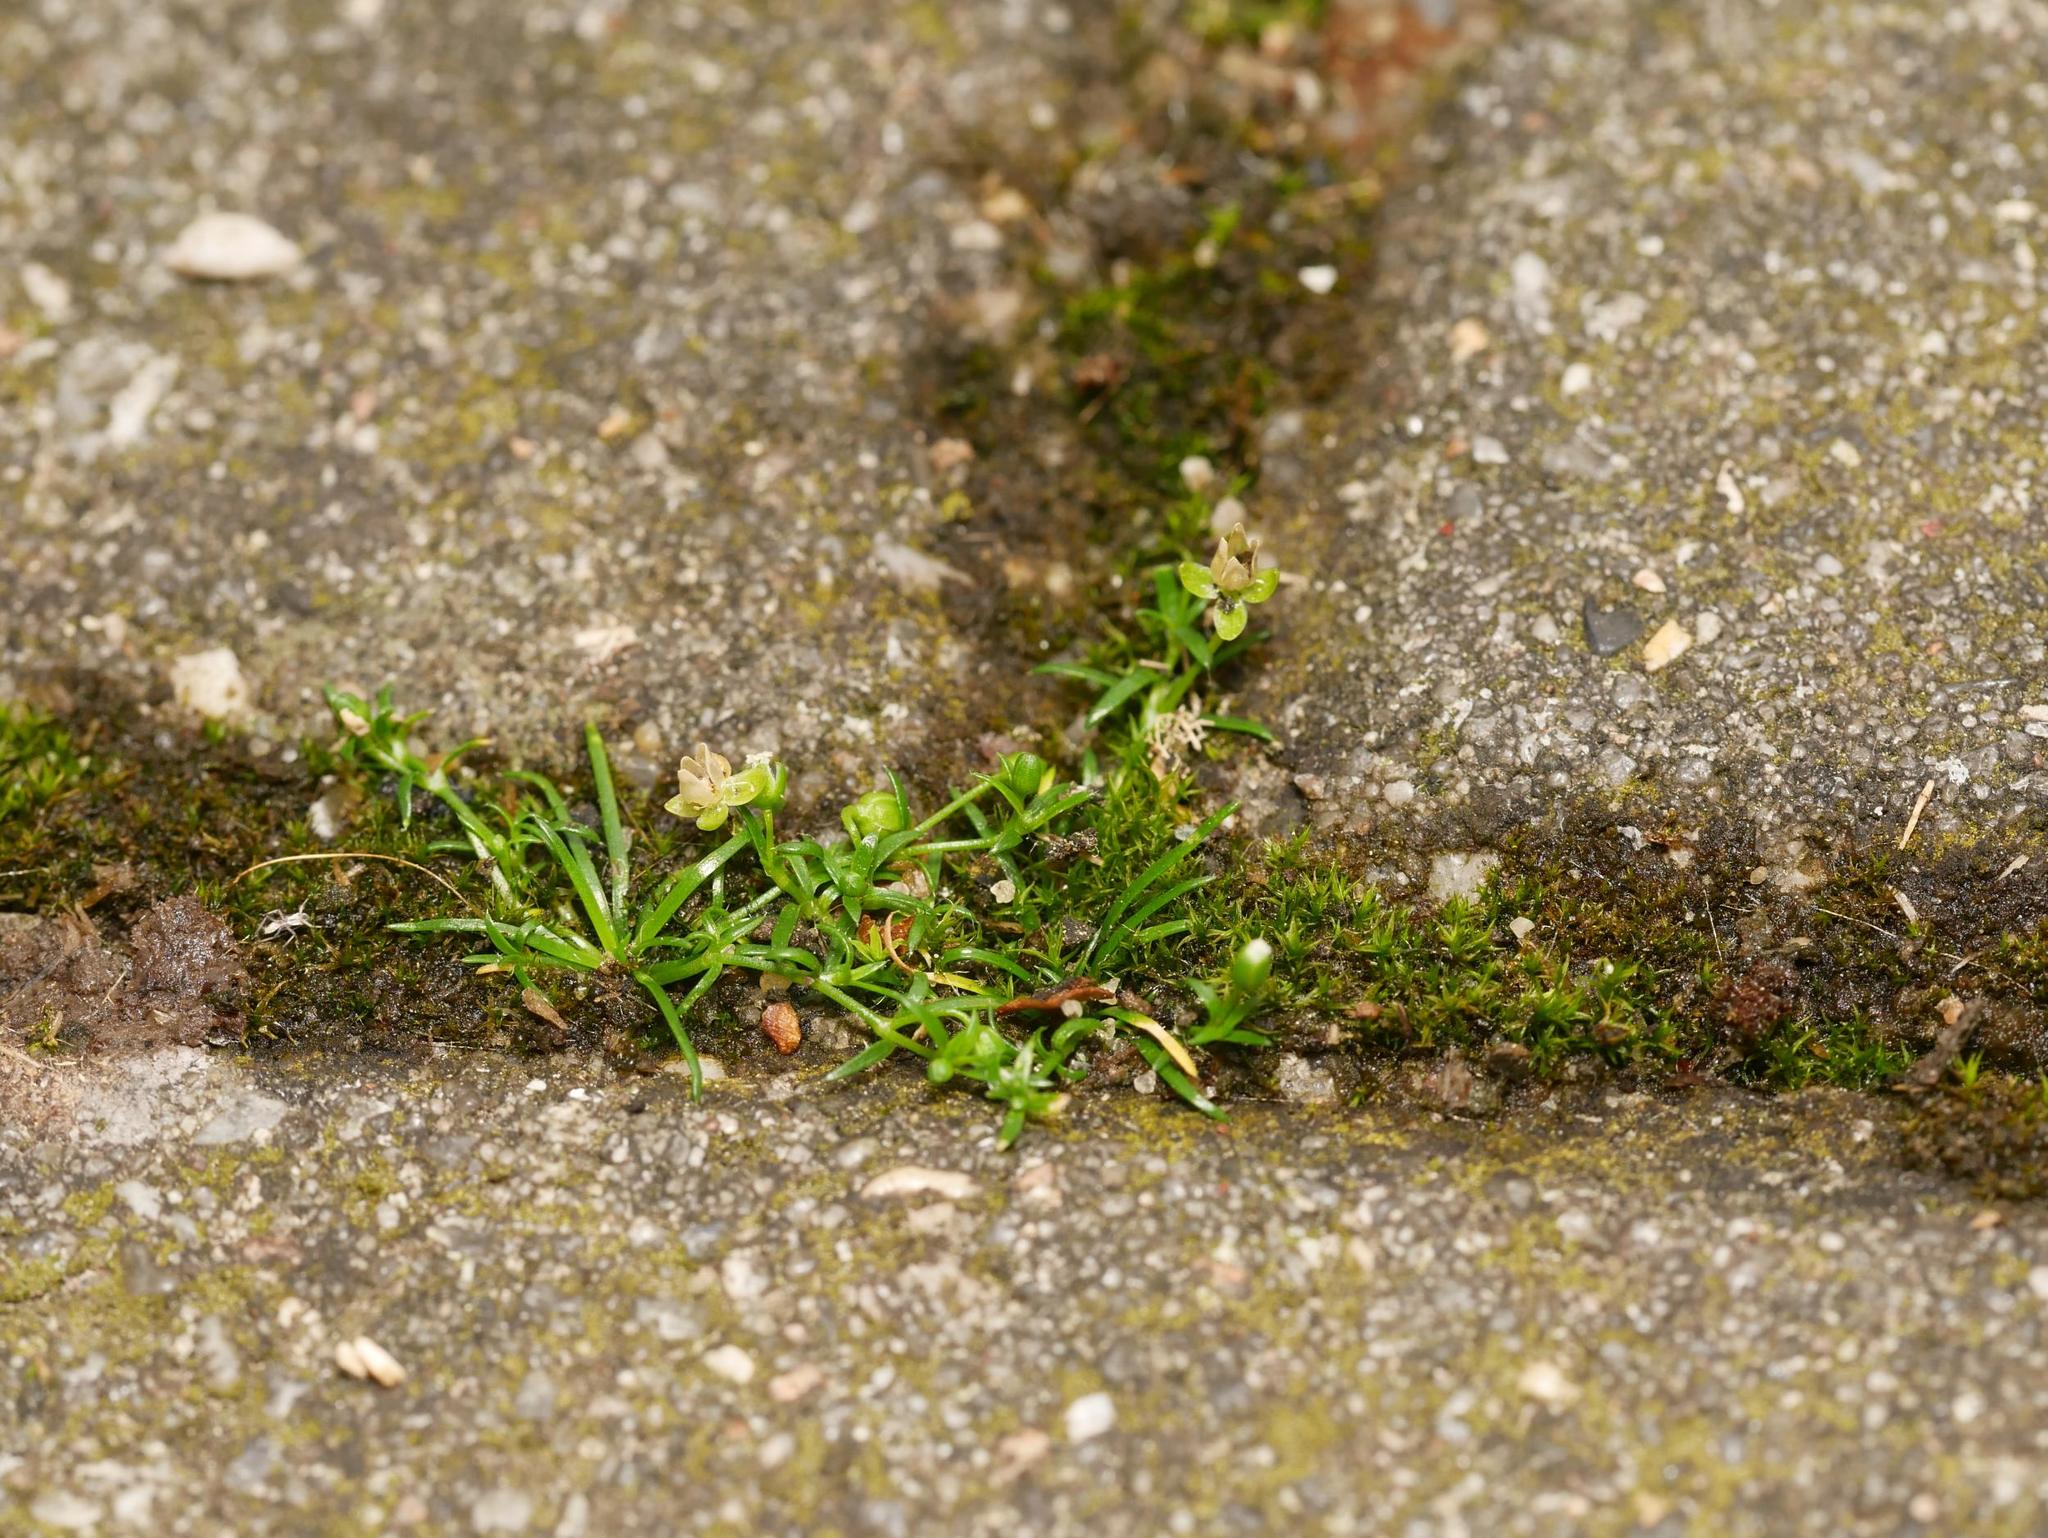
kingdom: Plantae
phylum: Tracheophyta
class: Magnoliopsida
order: Caryophyllales
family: Caryophyllaceae
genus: Sagina
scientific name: Sagina procumbens
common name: Procumbent pearlwort
